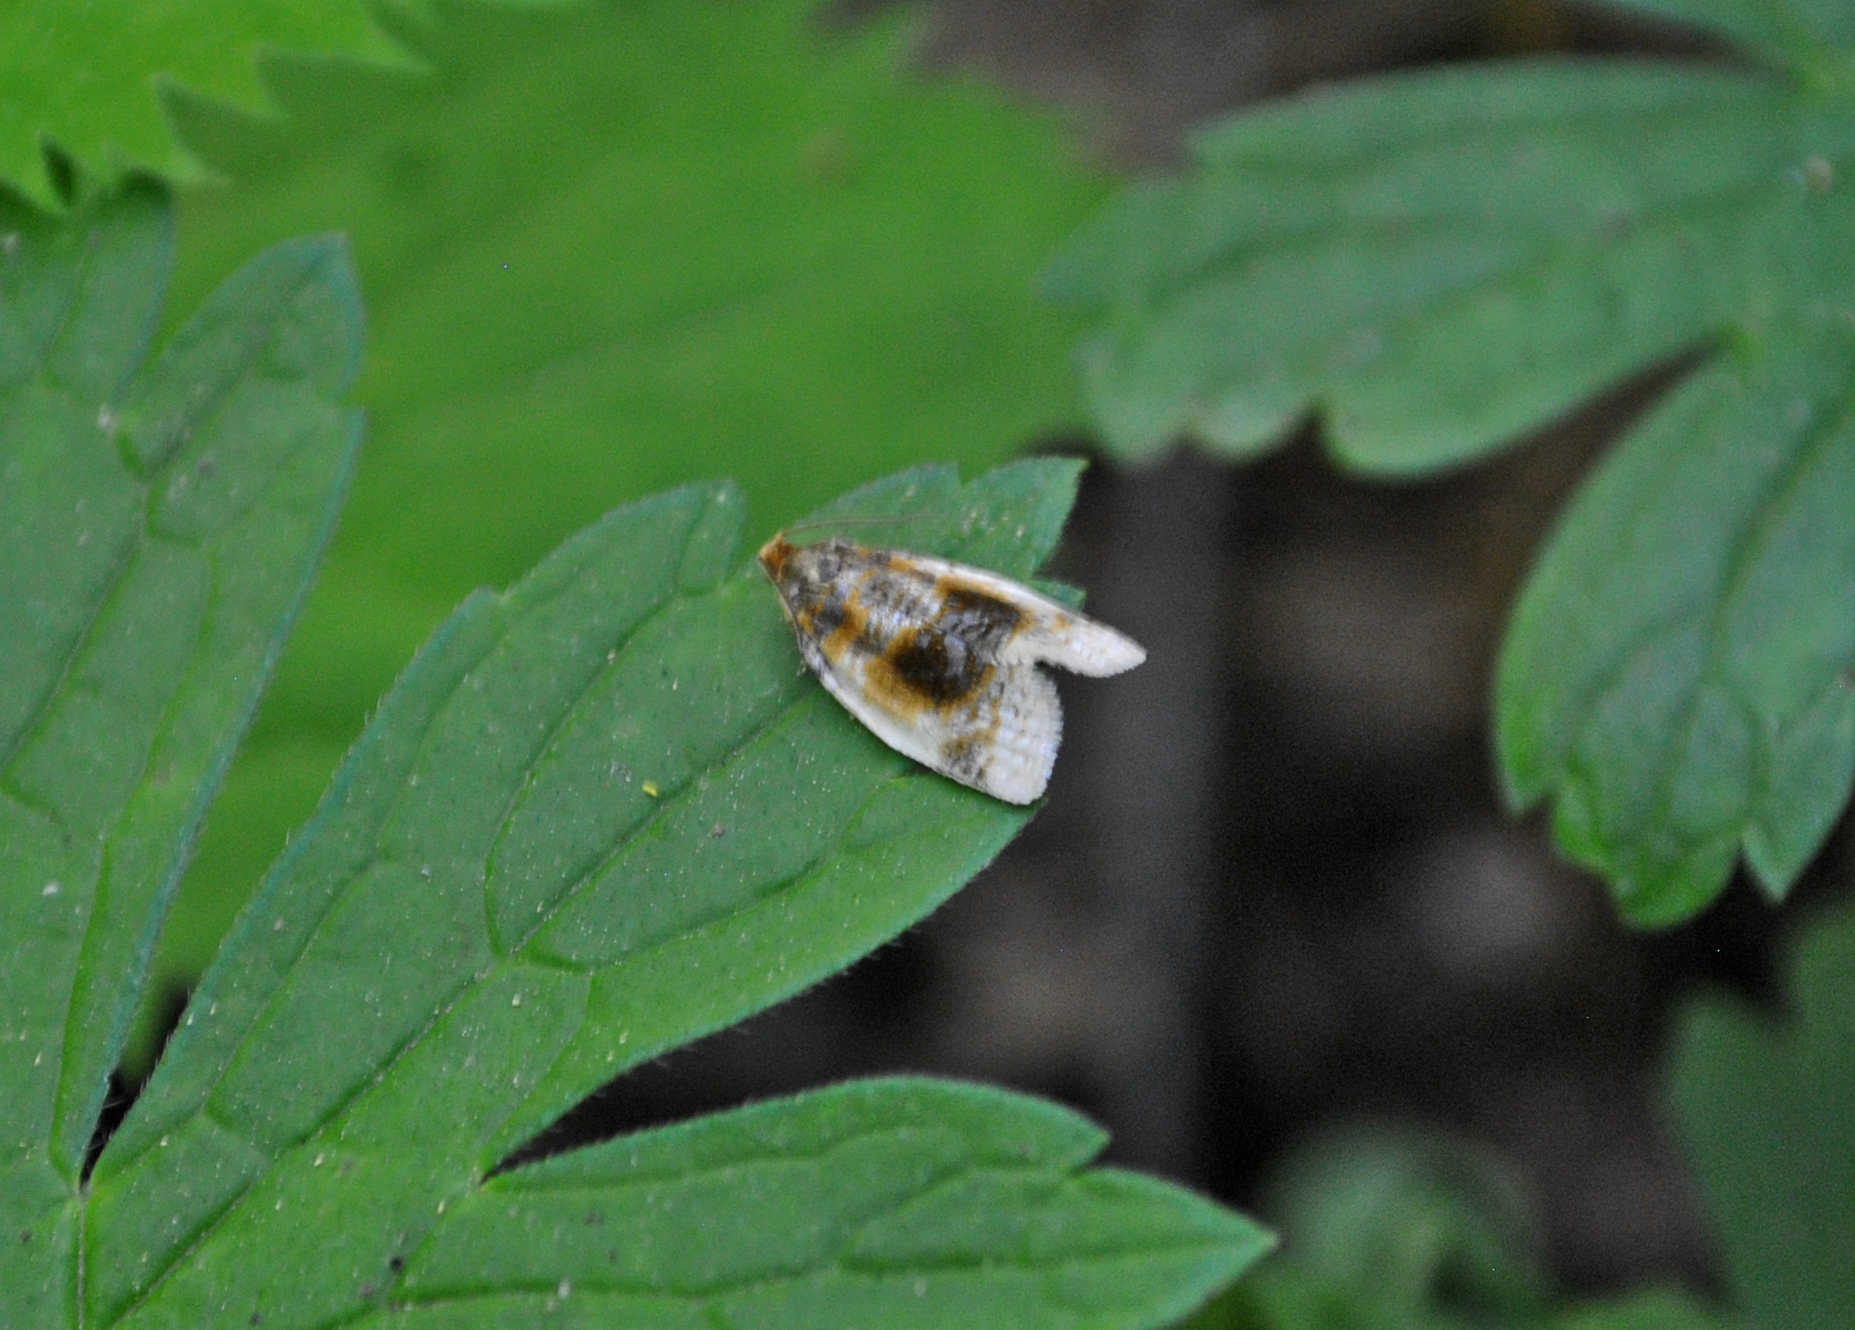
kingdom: Animalia
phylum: Arthropoda
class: Insecta
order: Lepidoptera
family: Tortricidae
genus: Clepsis
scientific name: Clepsis melaleucanus
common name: American apple tortrix
